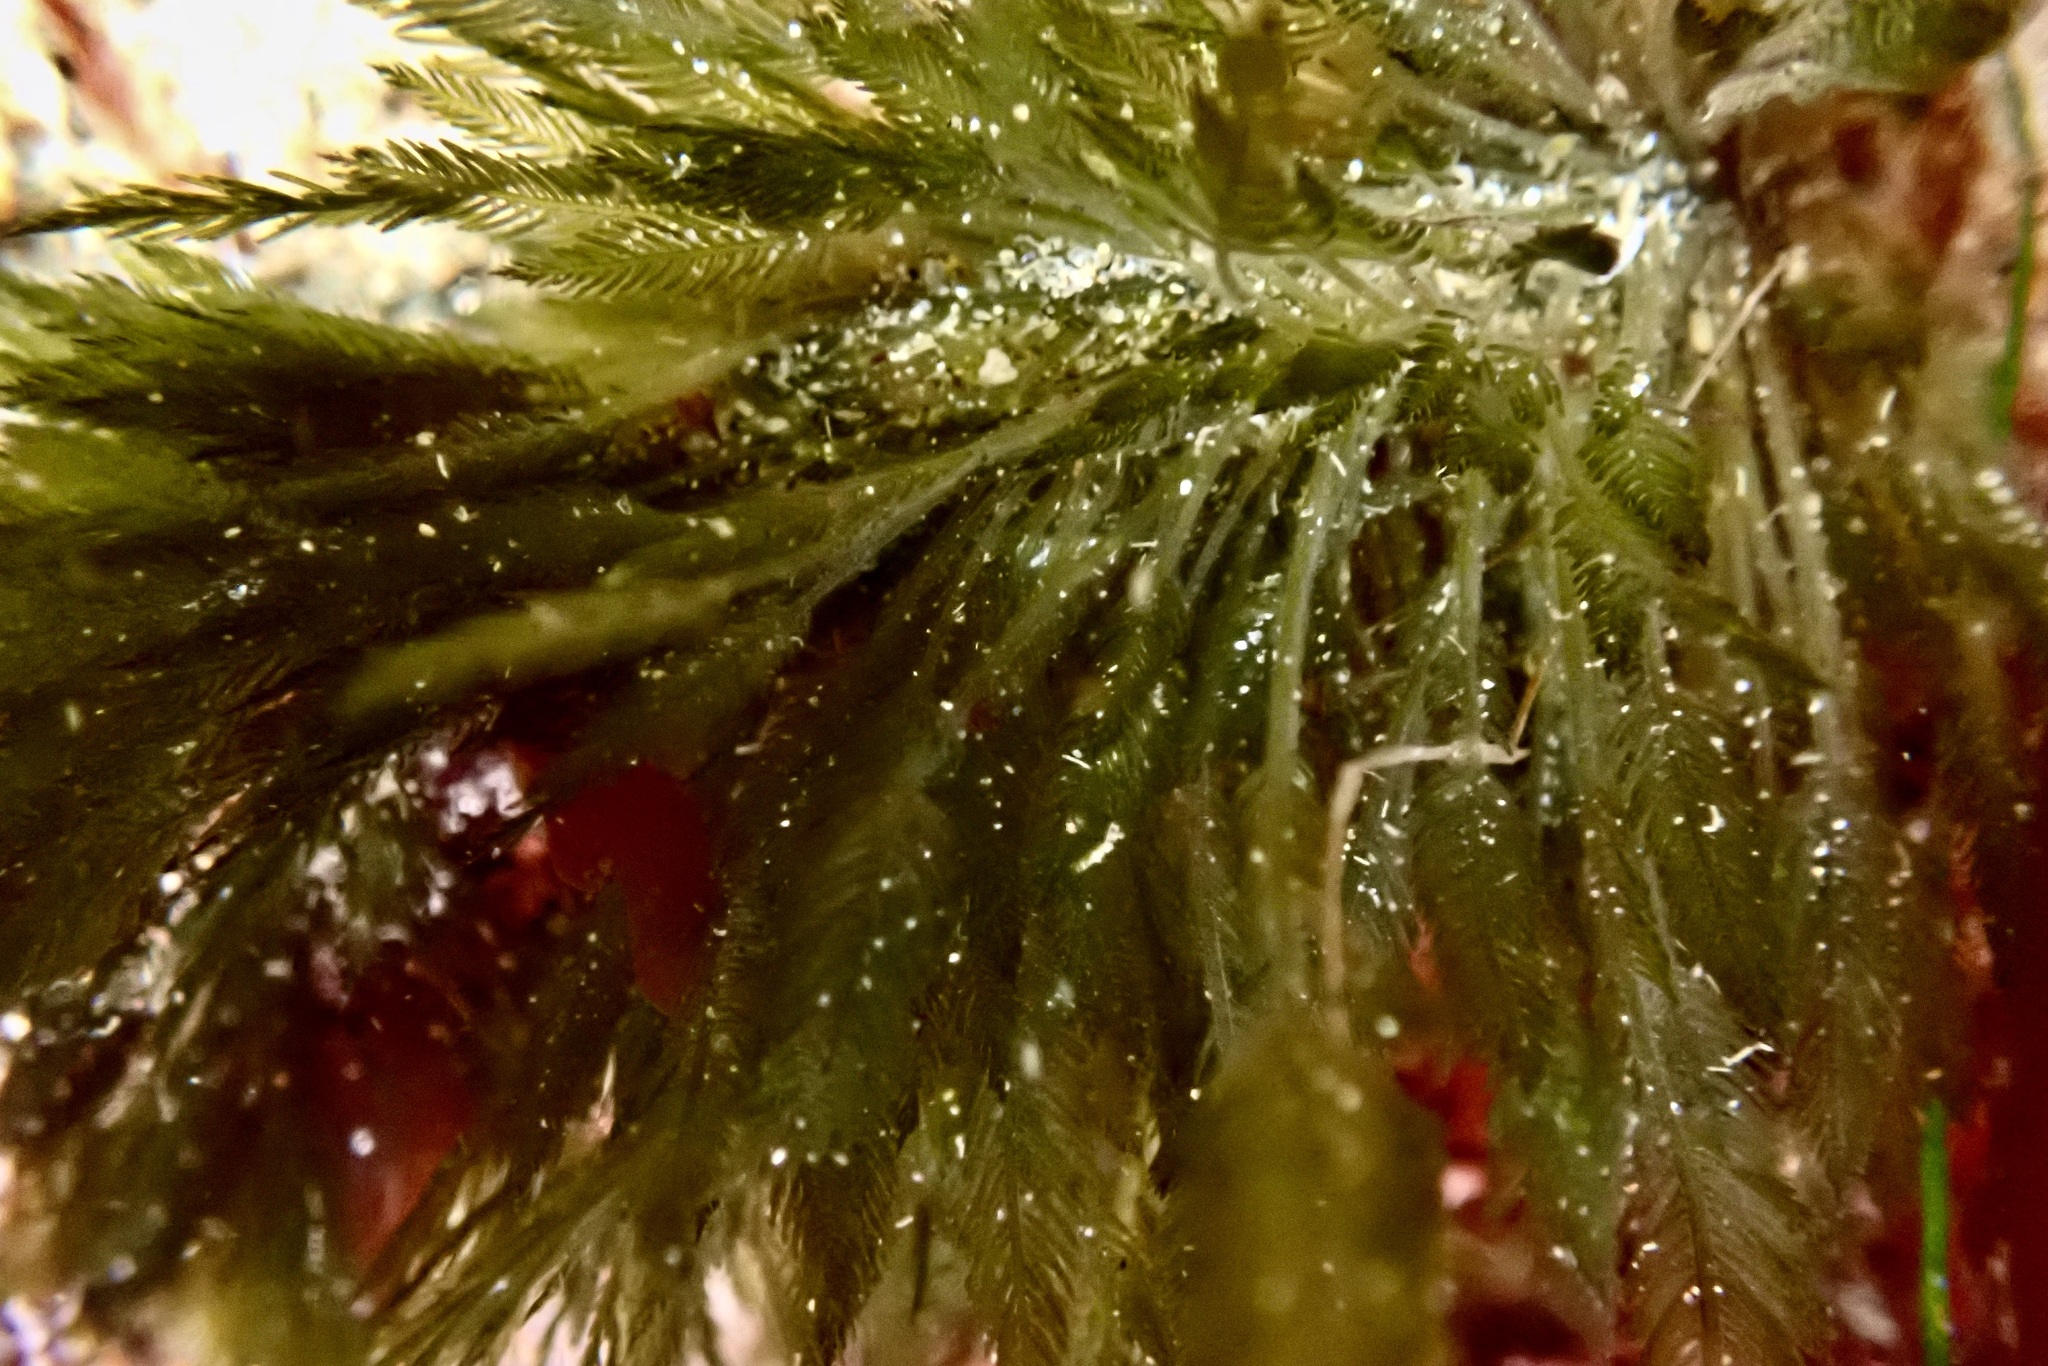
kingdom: Plantae
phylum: Chlorophyta
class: Ulvophyceae
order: Bryopsidales
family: Bryopsidaceae
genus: Bryopsis
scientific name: Bryopsis corticulans
